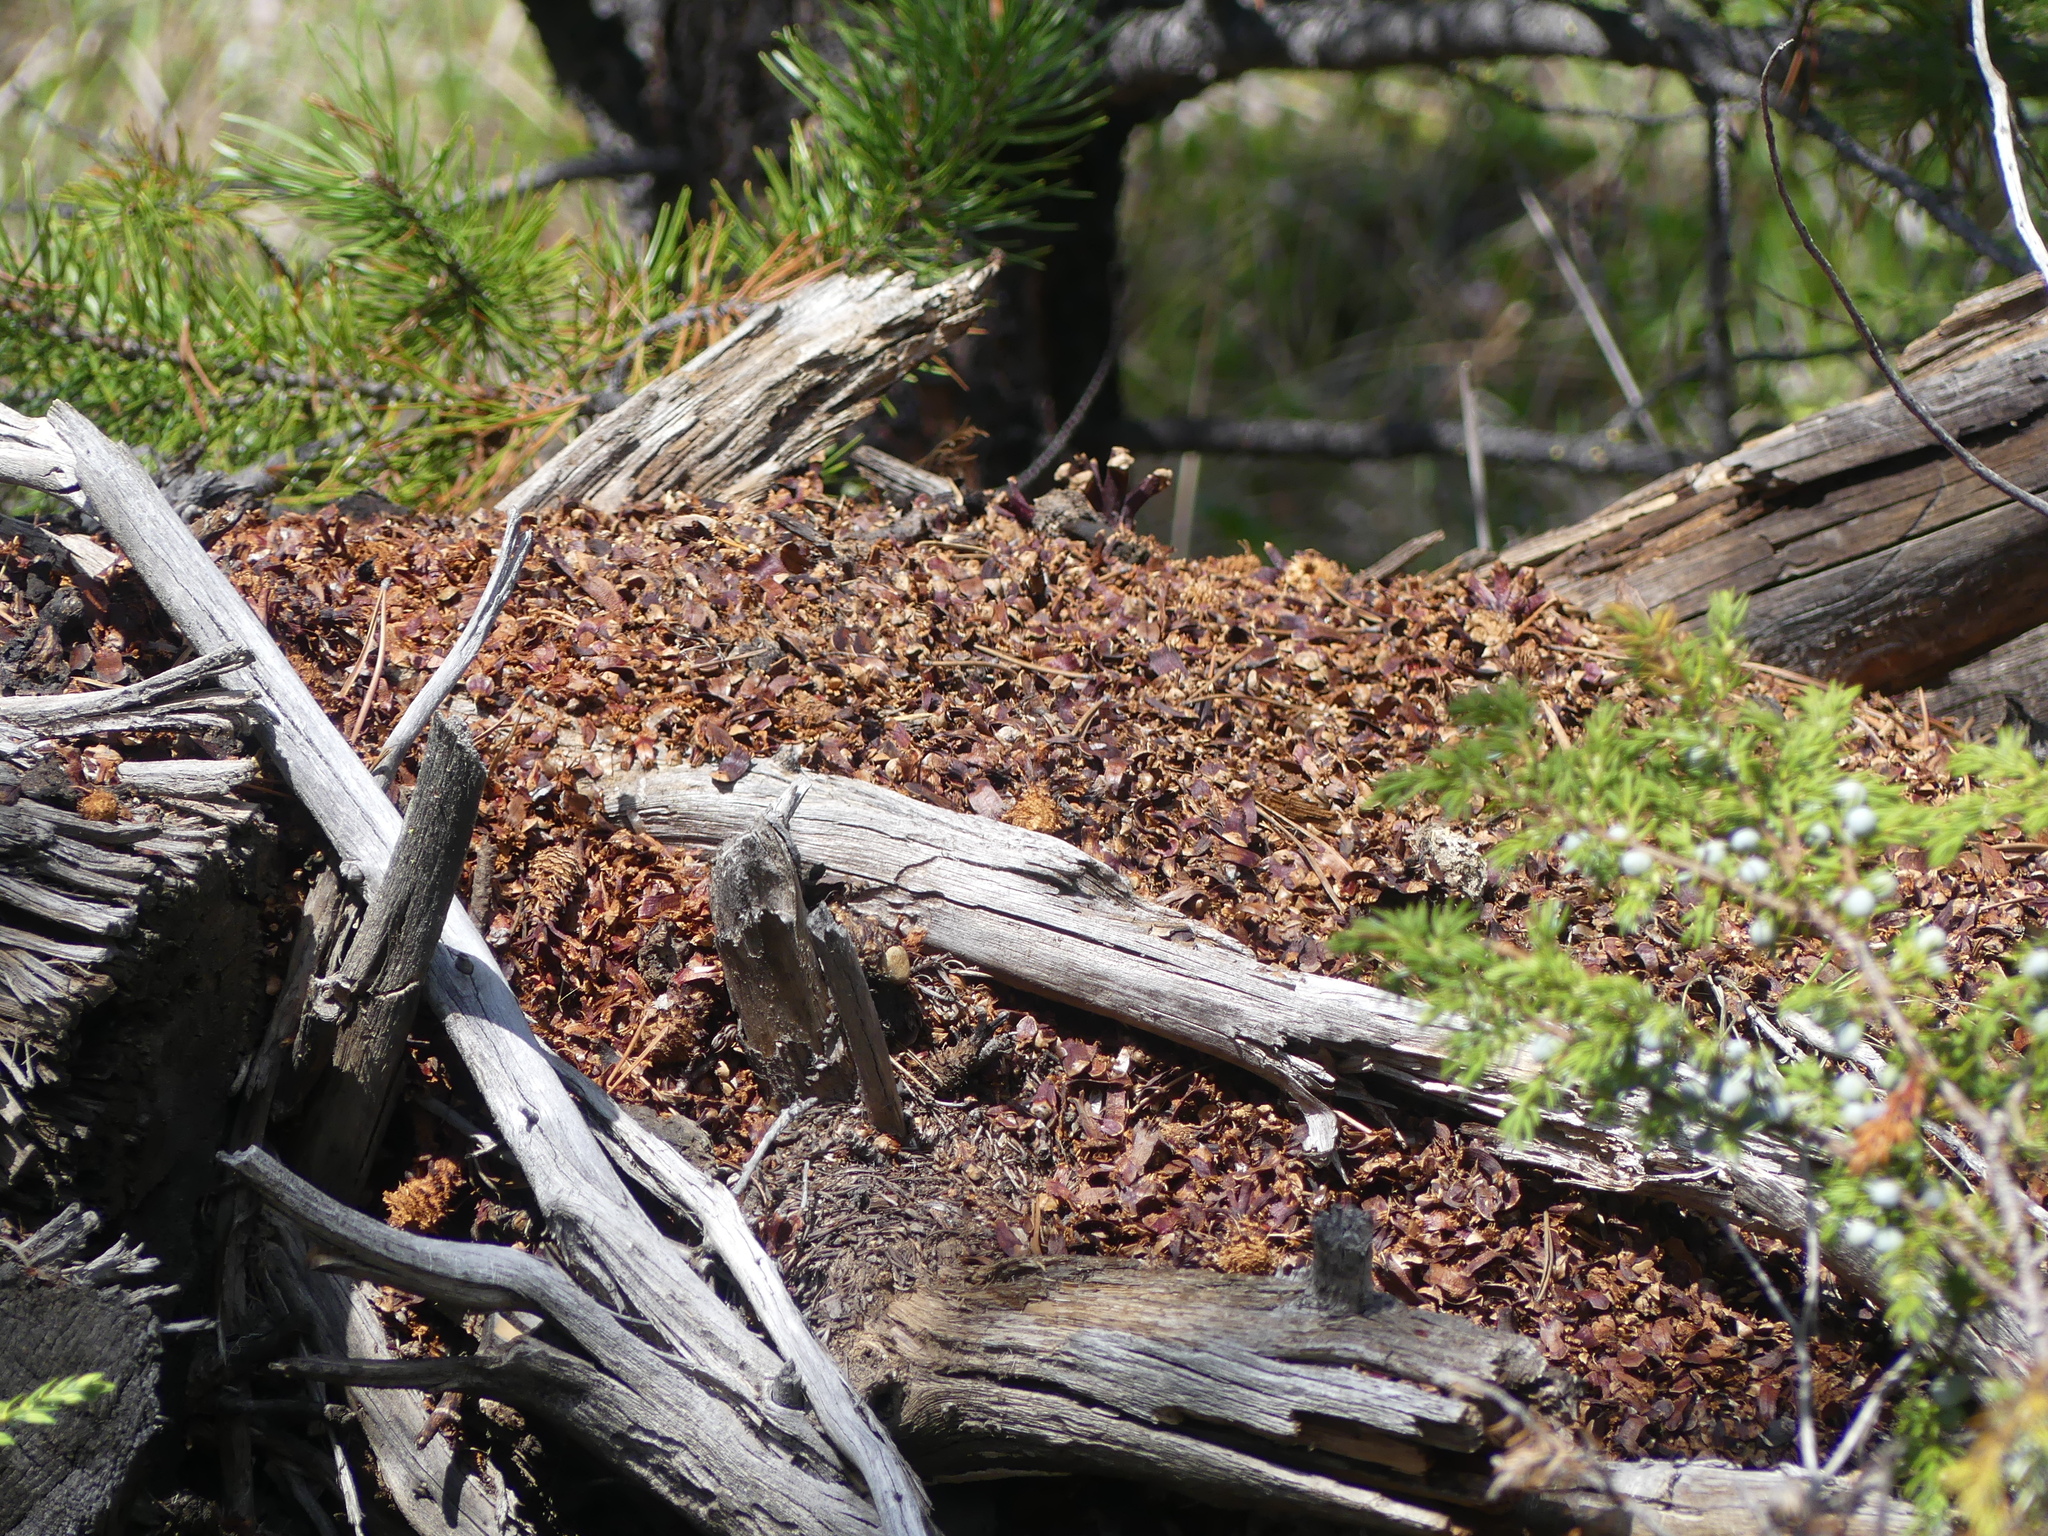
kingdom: Animalia
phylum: Chordata
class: Mammalia
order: Rodentia
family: Sciuridae
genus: Tamiasciurus
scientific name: Tamiasciurus hudsonicus
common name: Red squirrel
